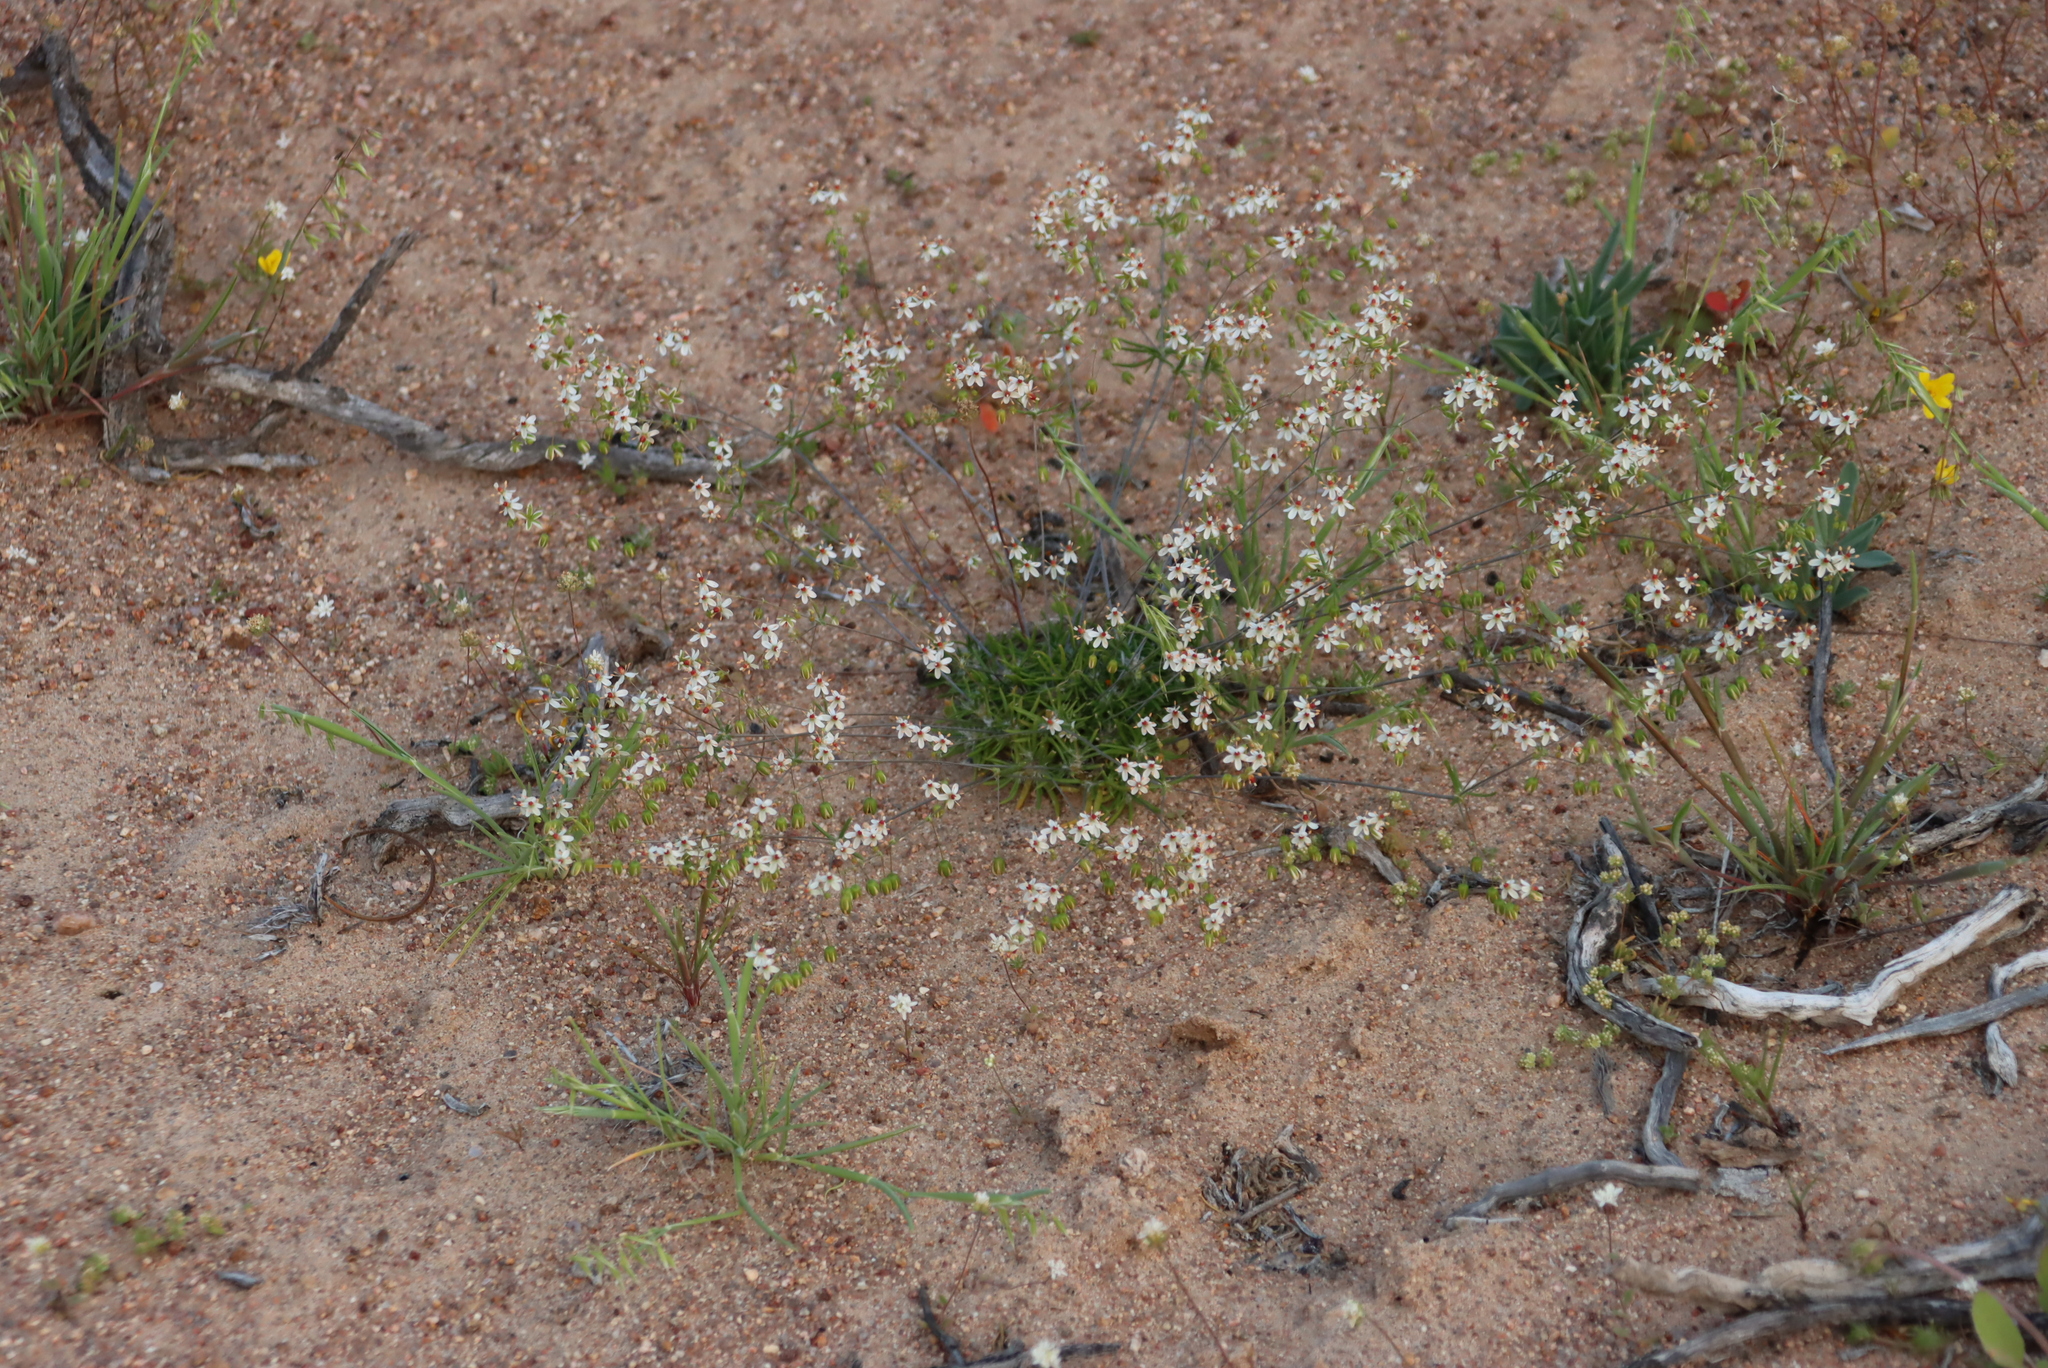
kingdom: Plantae
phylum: Tracheophyta
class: Magnoliopsida
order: Caryophyllales
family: Molluginaceae
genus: Pharnaceum
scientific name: Pharnaceum confertum
